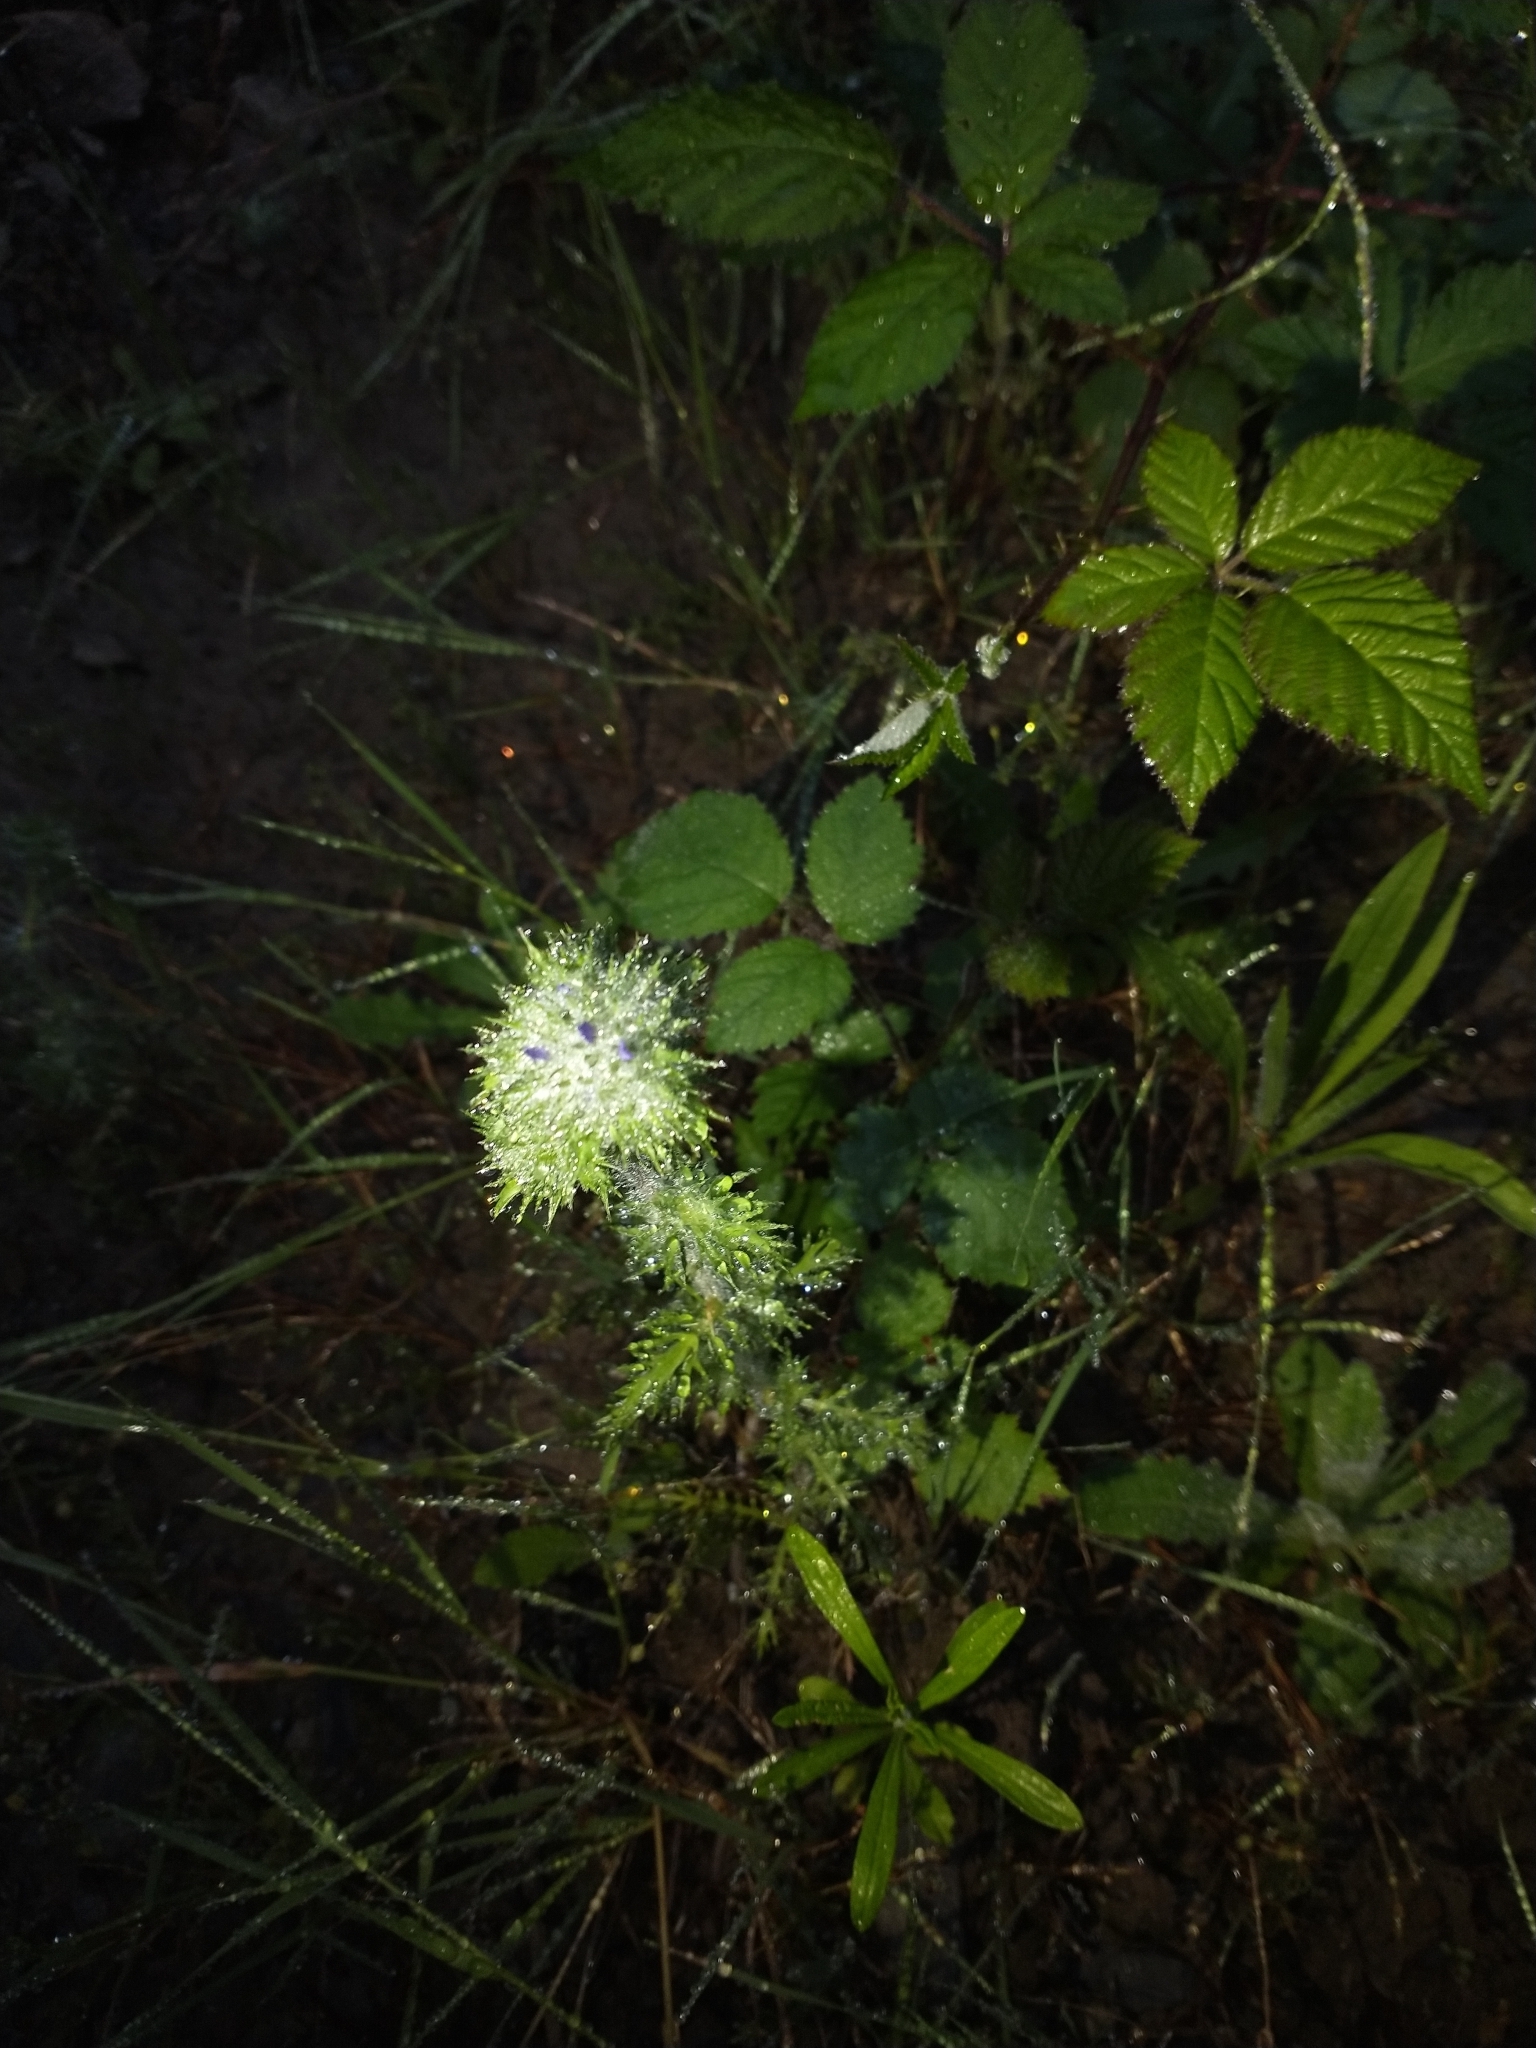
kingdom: Plantae
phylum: Tracheophyta
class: Magnoliopsida
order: Ericales
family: Polemoniaceae
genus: Navarretia
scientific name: Navarretia squarrosa
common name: Skunkweed
